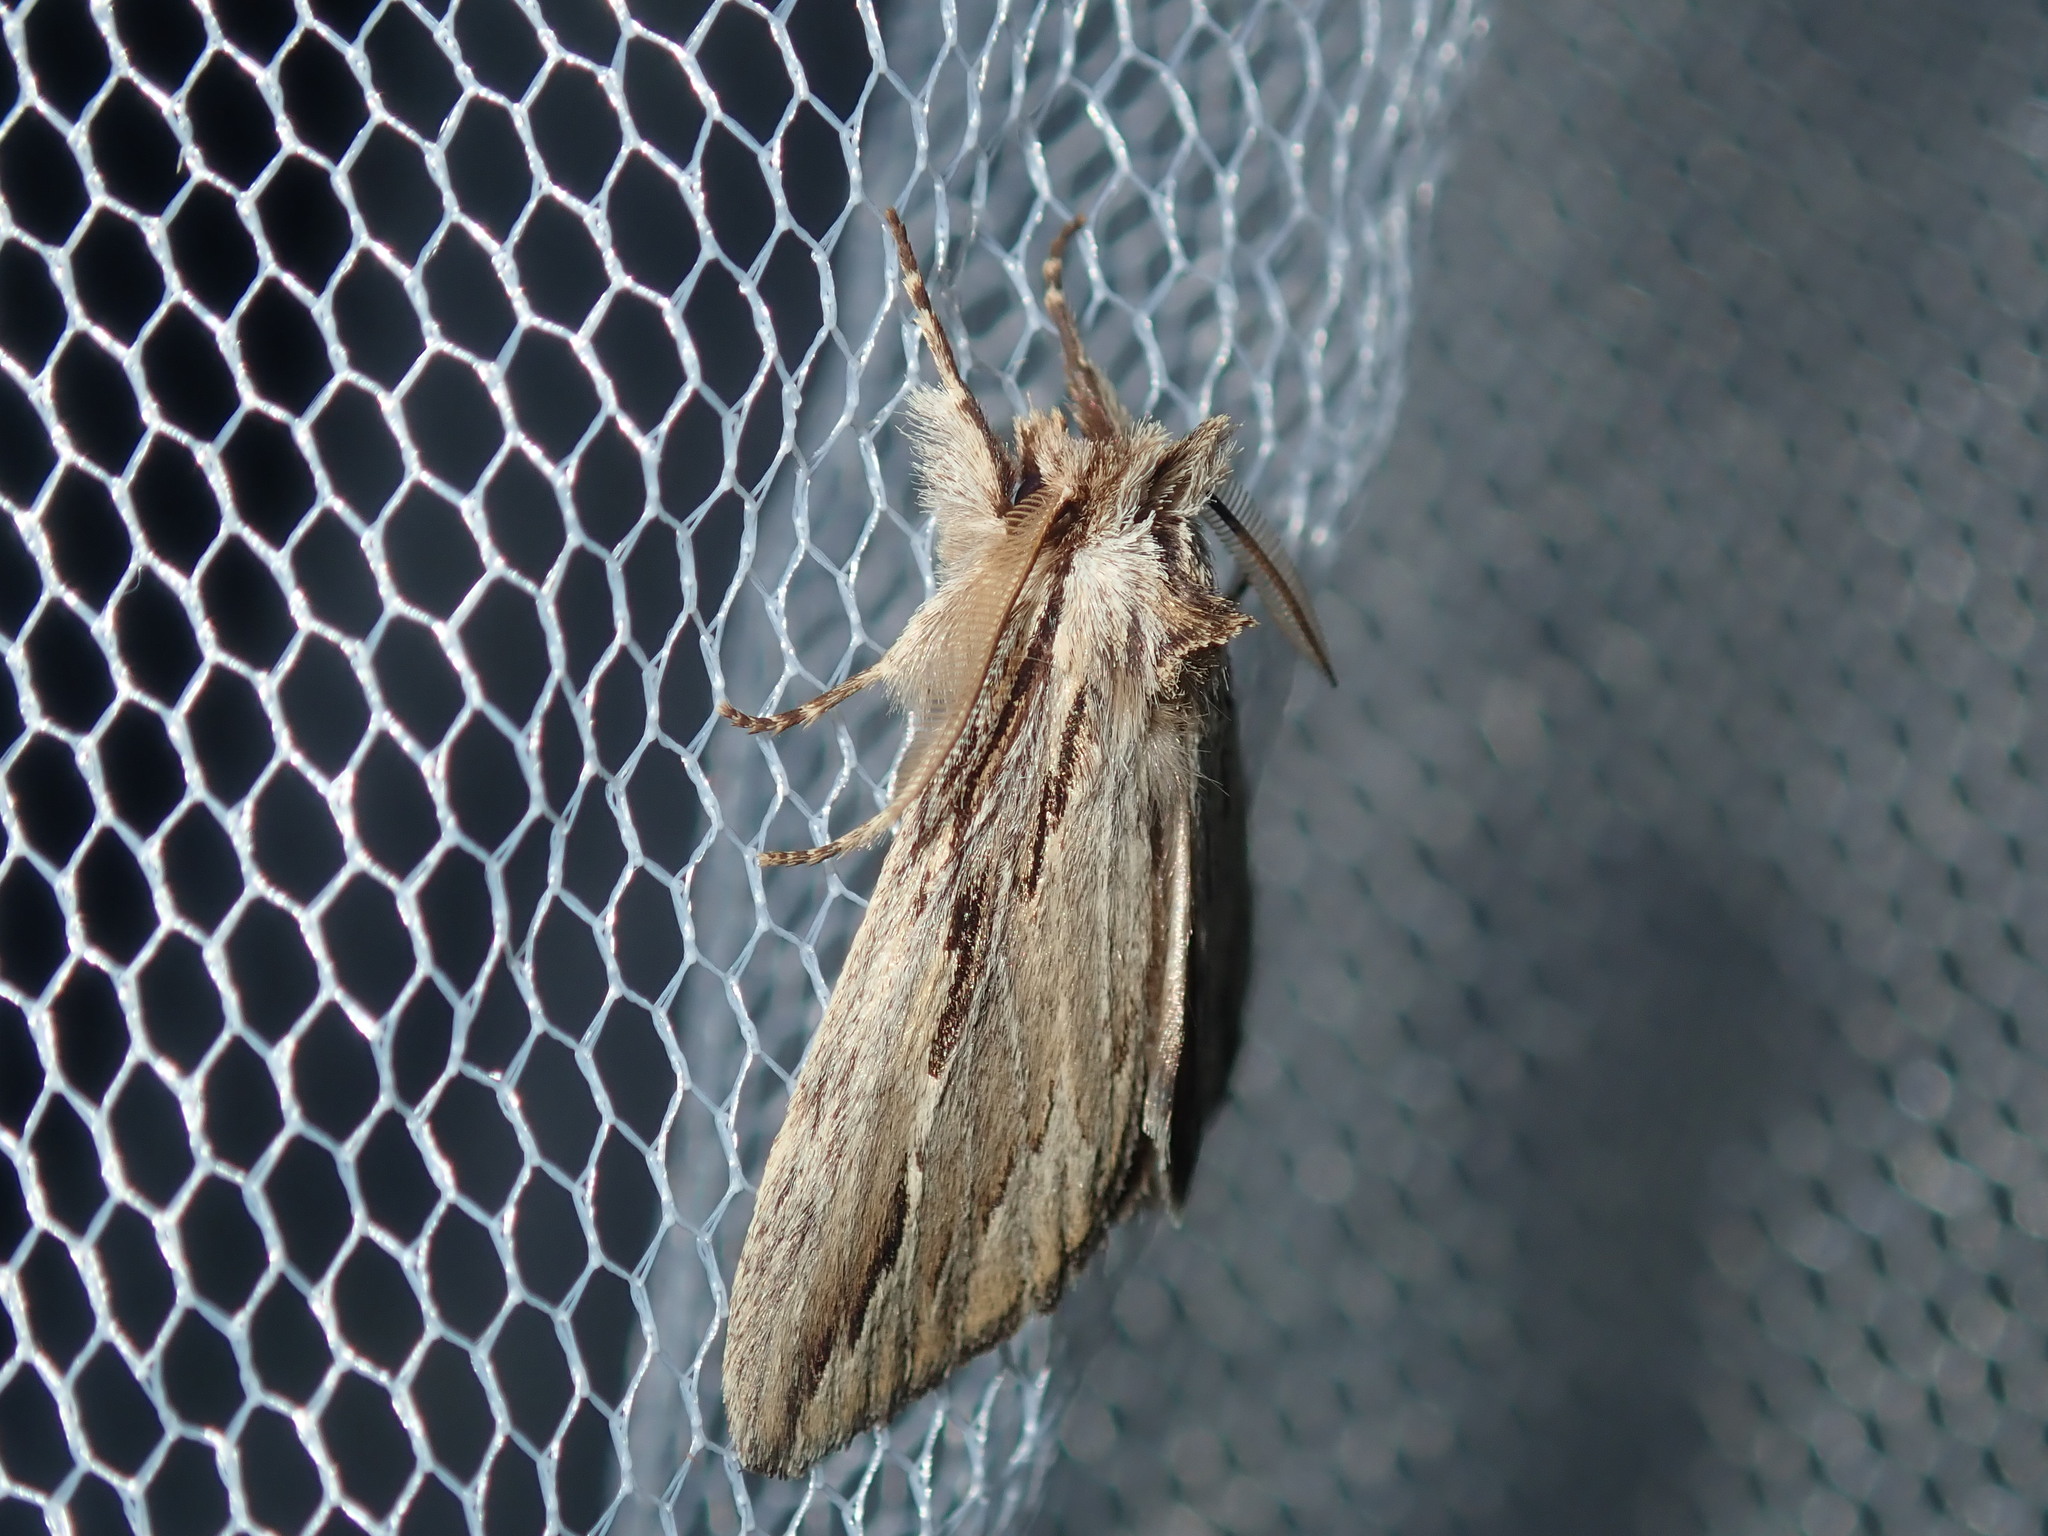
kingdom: Animalia
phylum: Arthropoda
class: Insecta
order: Lepidoptera
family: Notodontidae
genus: Ecnomodes
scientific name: Ecnomodes sagittaria
